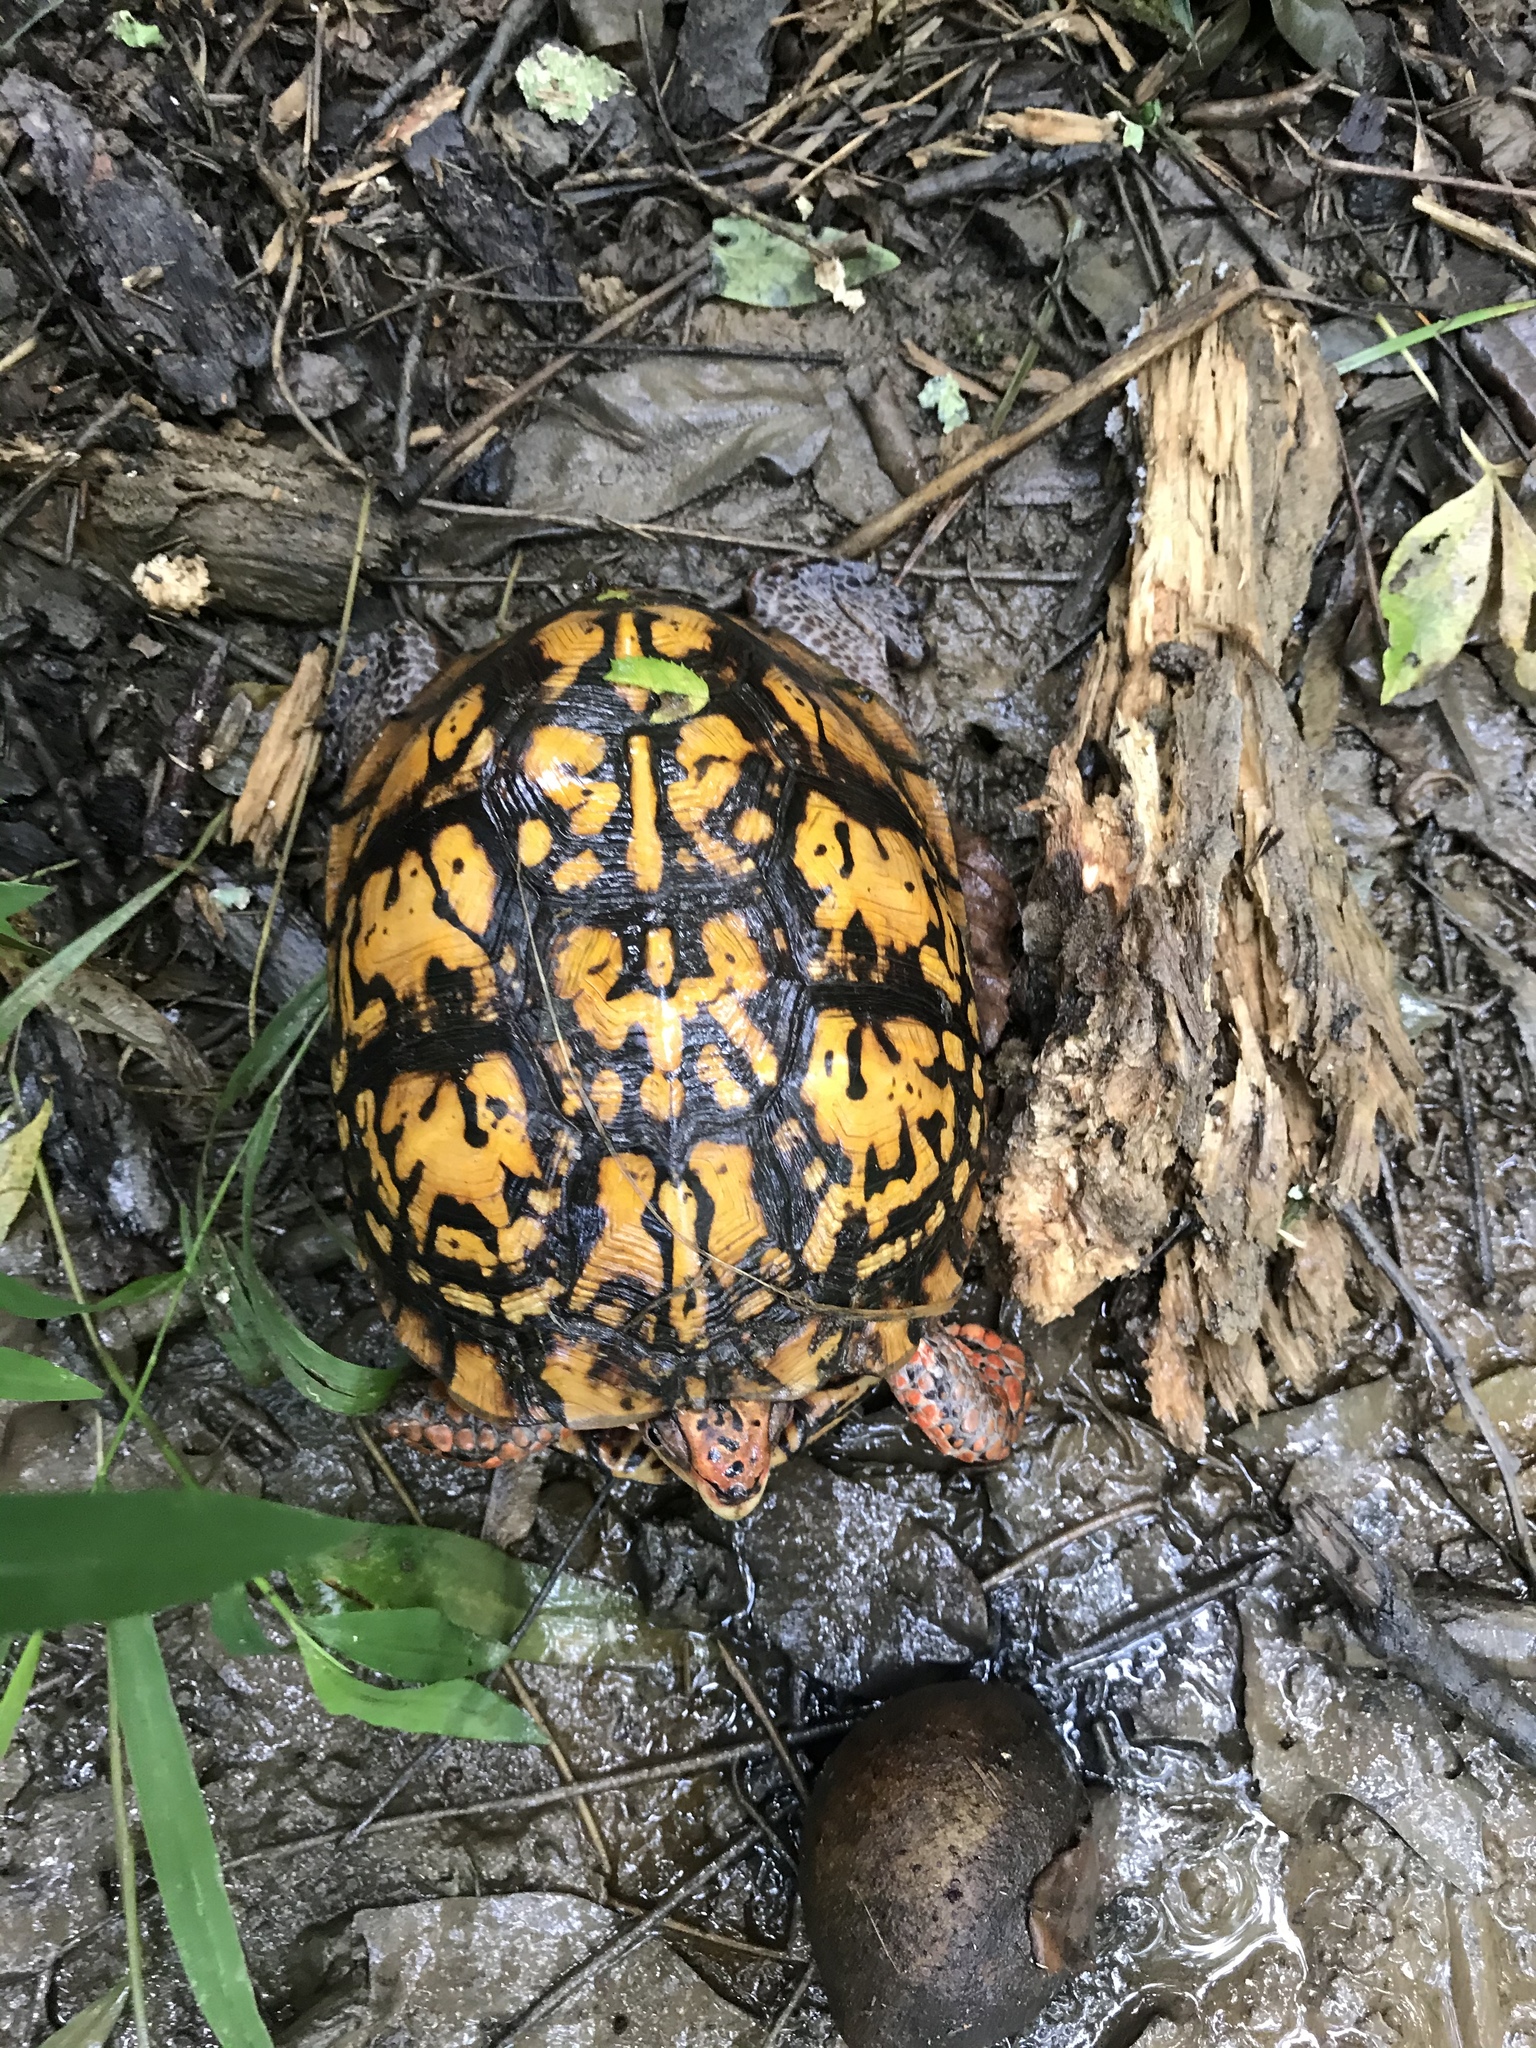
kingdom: Animalia
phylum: Chordata
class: Testudines
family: Emydidae
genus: Terrapene
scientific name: Terrapene carolina
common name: Common box turtle
